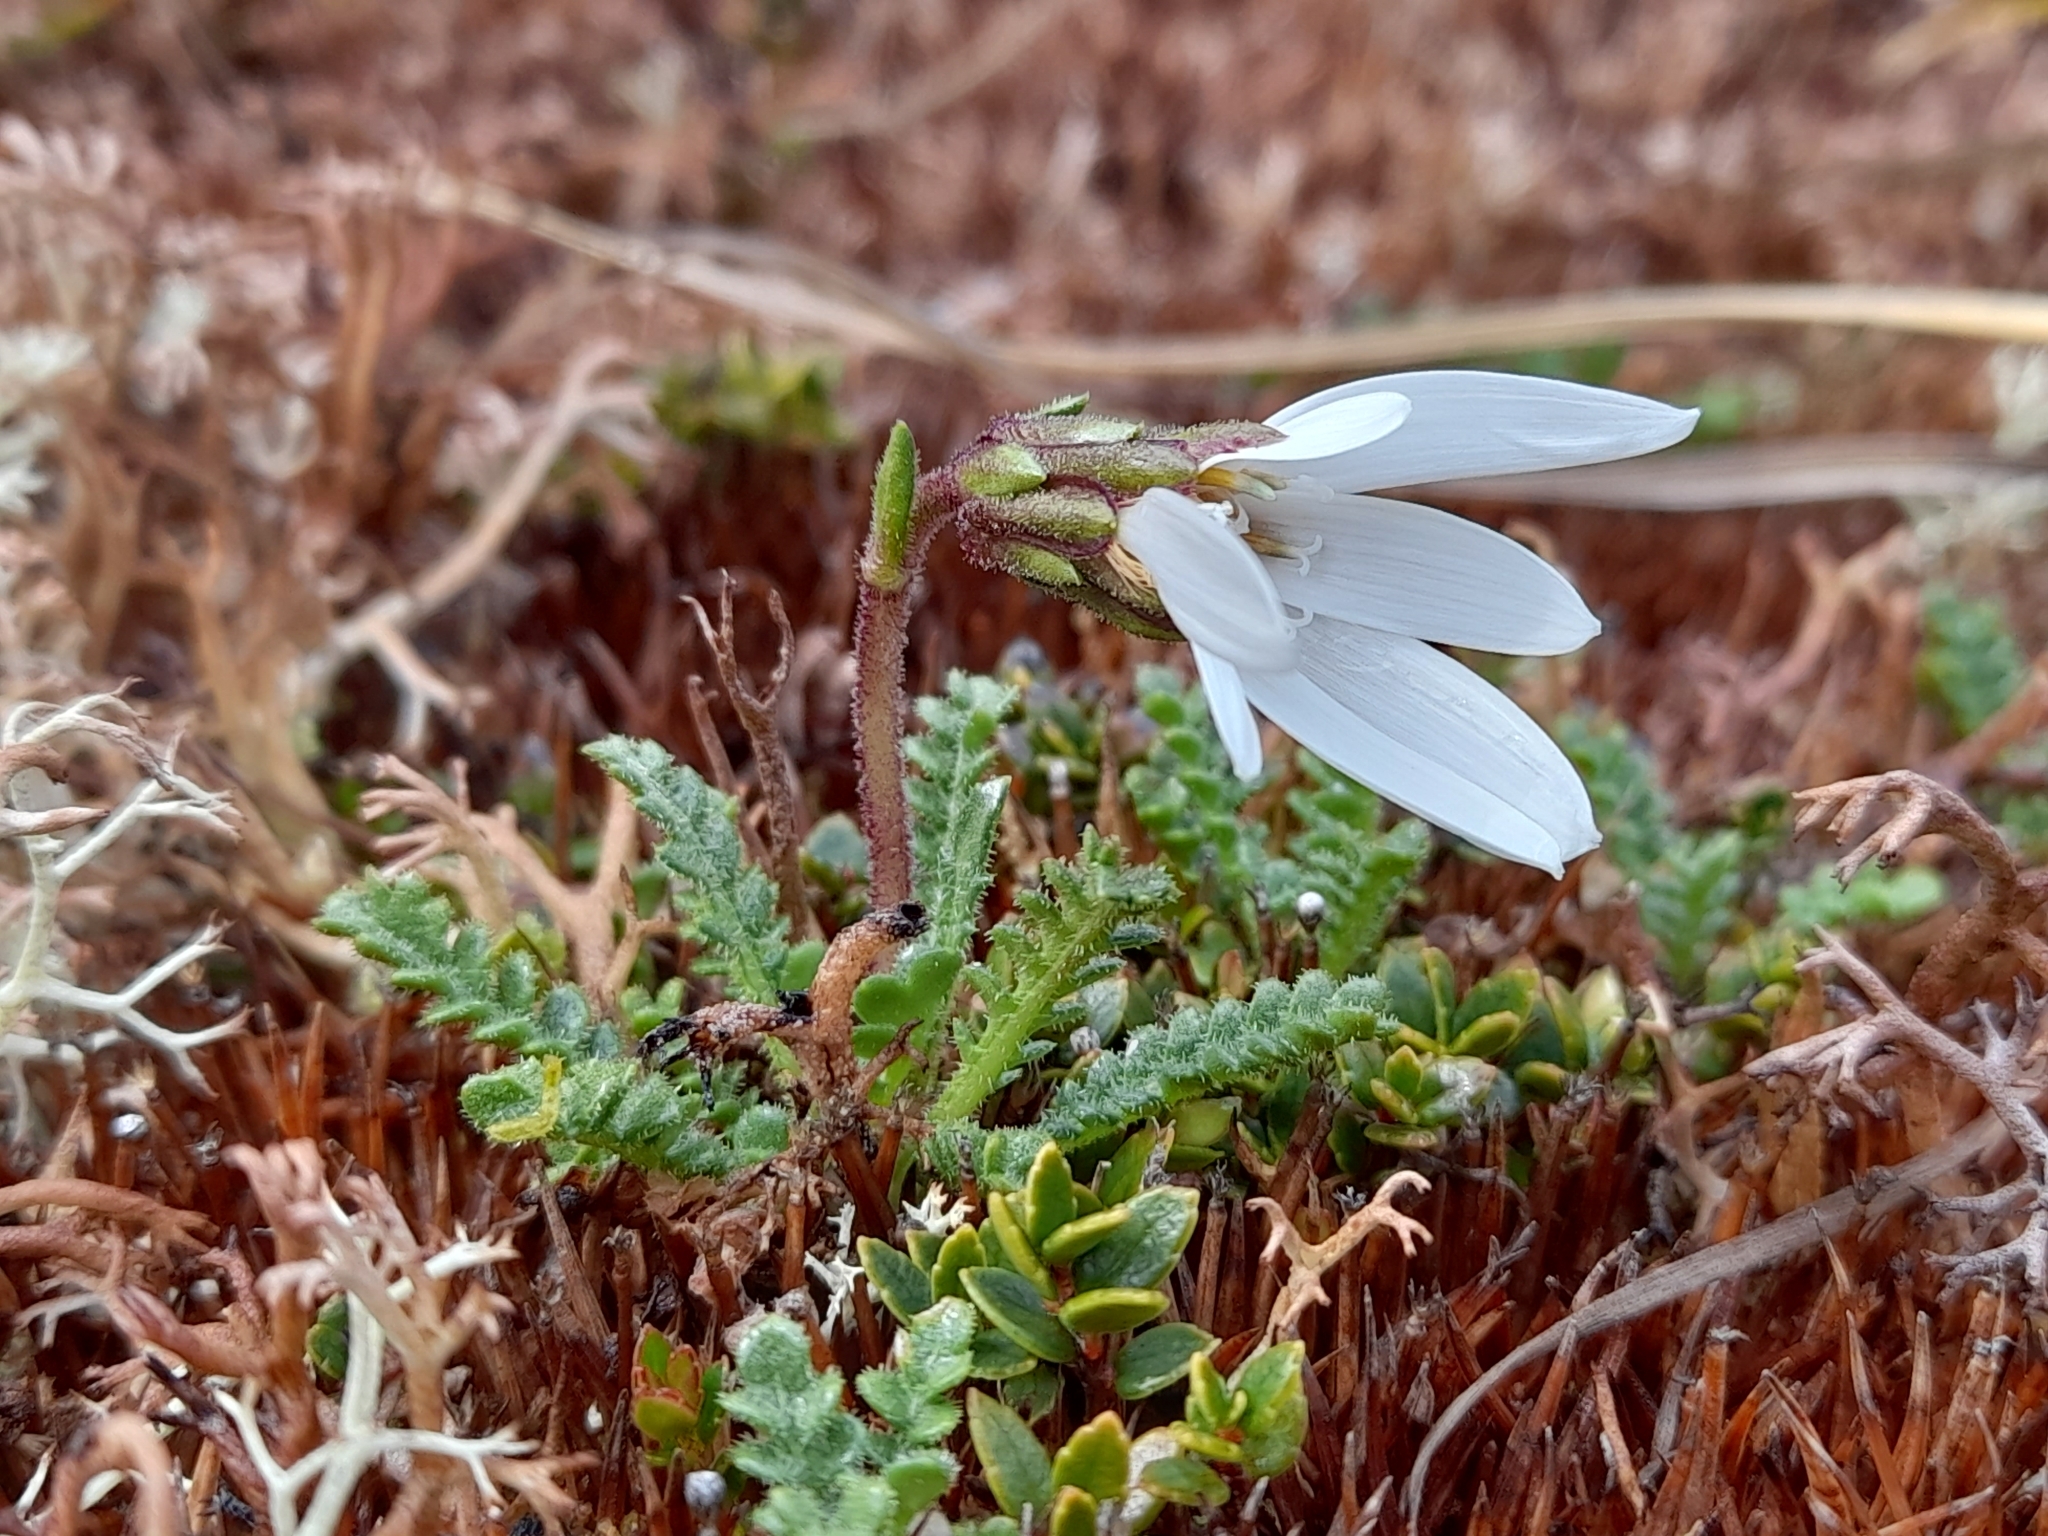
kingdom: Plantae
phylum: Tracheophyta
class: Magnoliopsida
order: Asterales
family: Asteraceae
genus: Perezia
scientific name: Perezia magellanica
